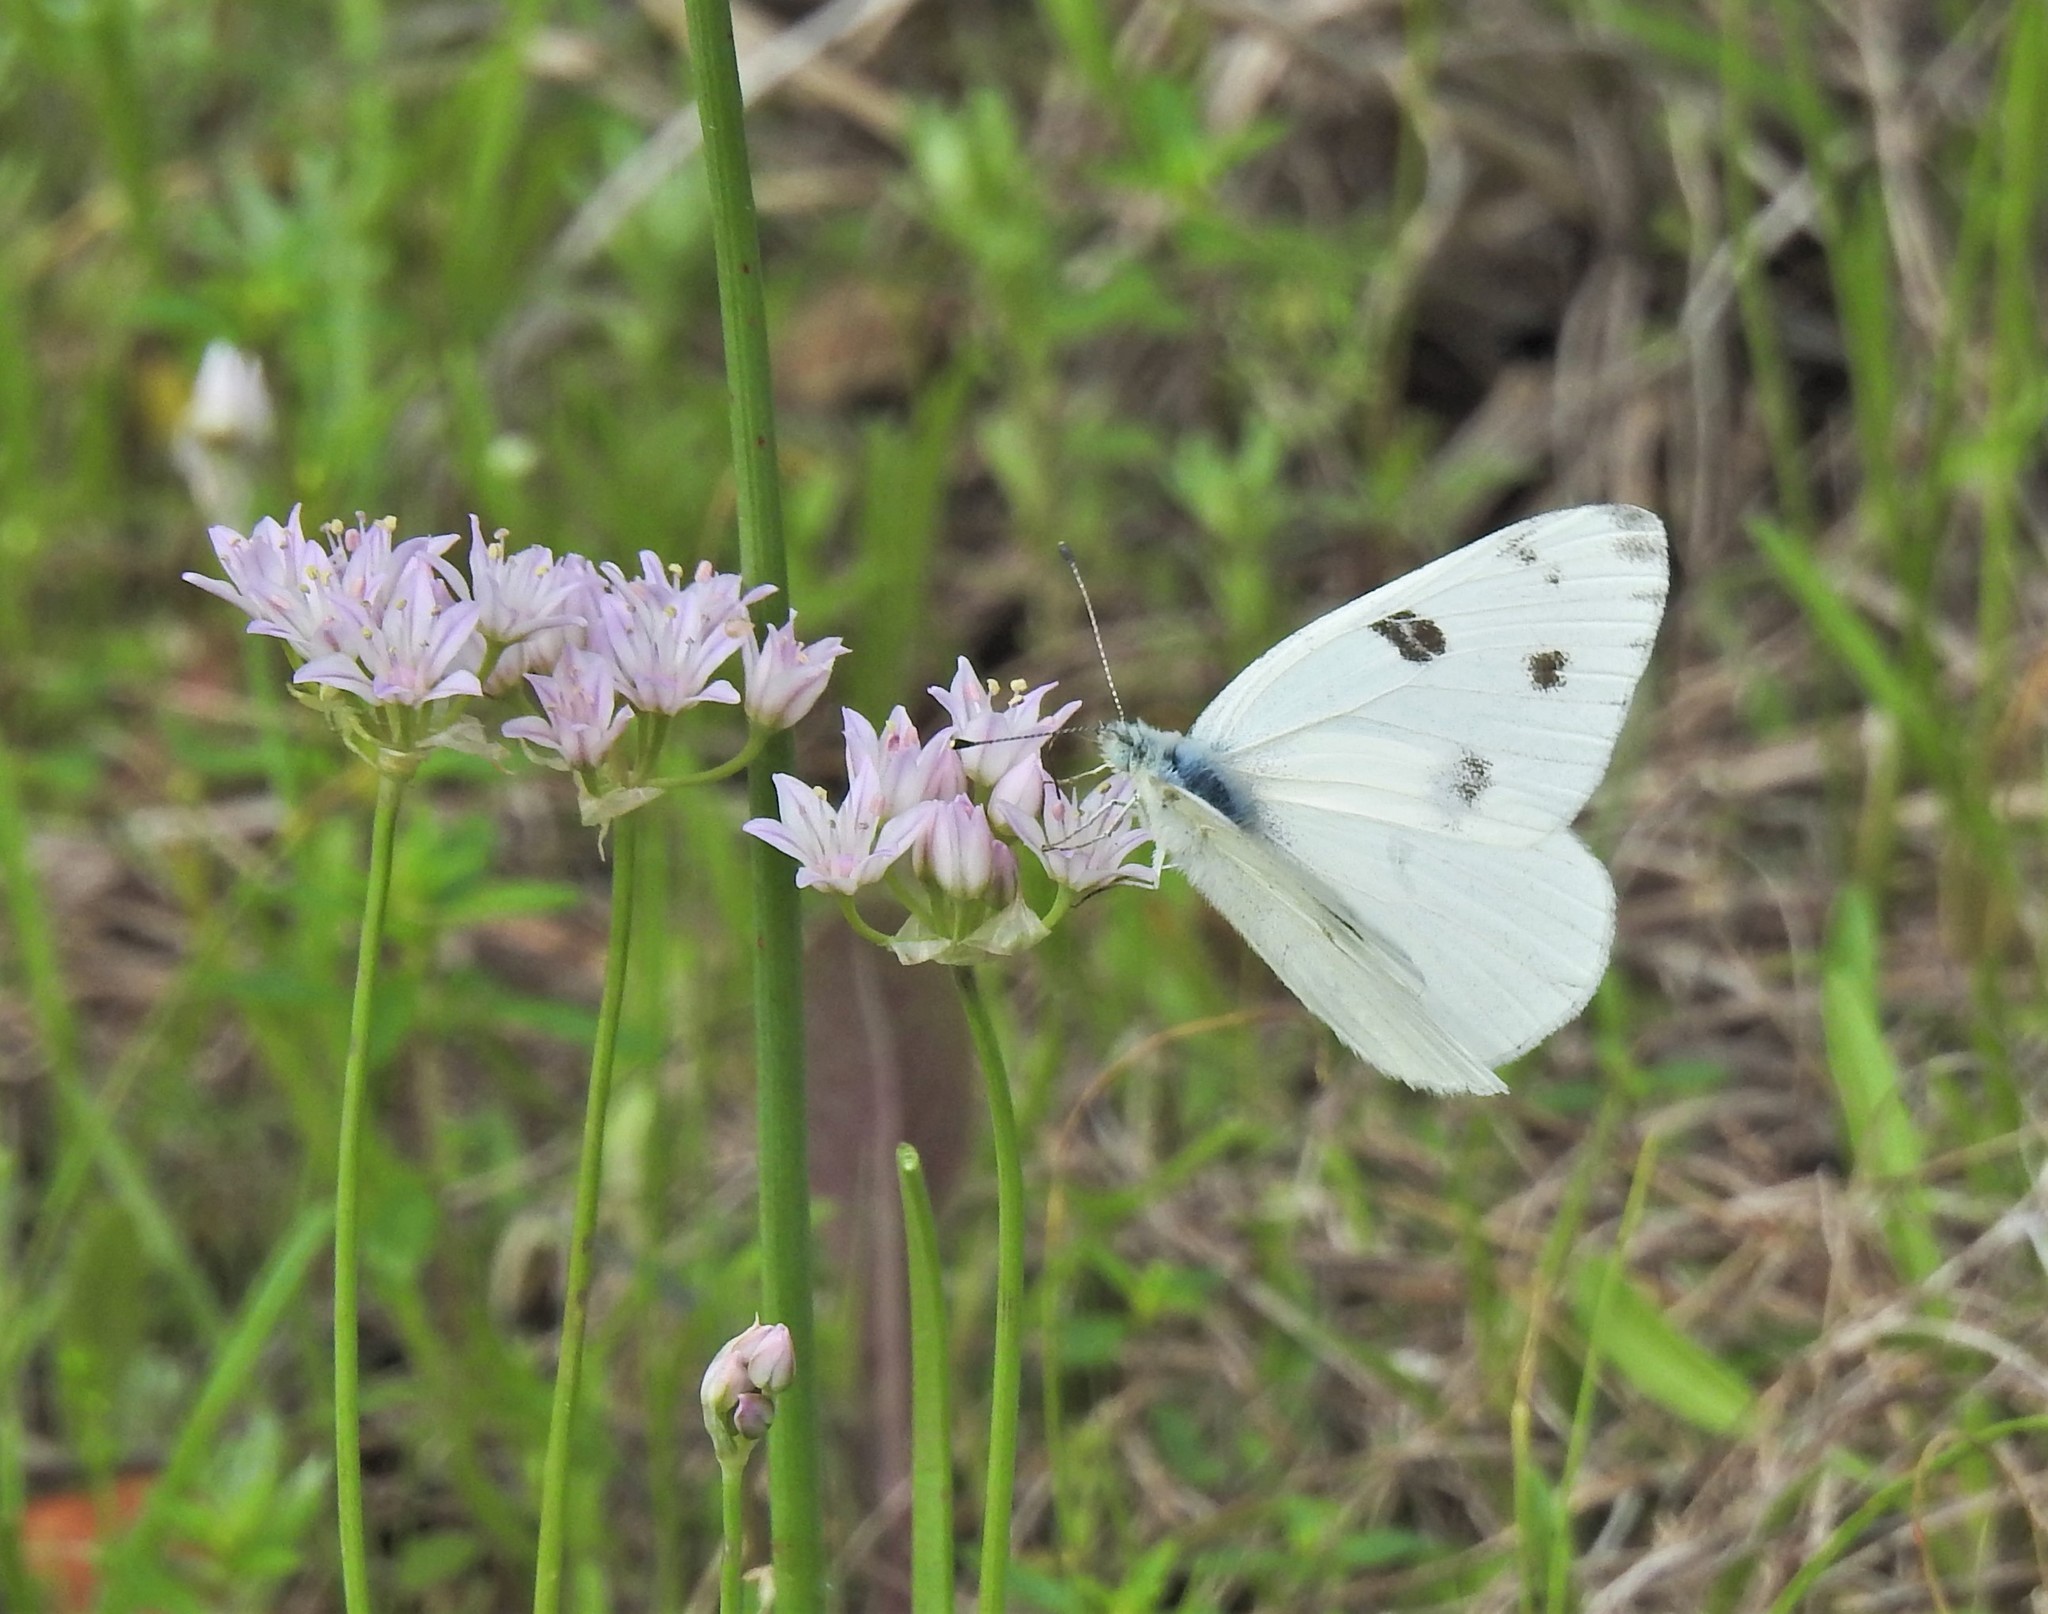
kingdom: Animalia
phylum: Arthropoda
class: Insecta
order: Lepidoptera
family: Pieridae
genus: Pontia
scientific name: Pontia protodice
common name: Checkered white
